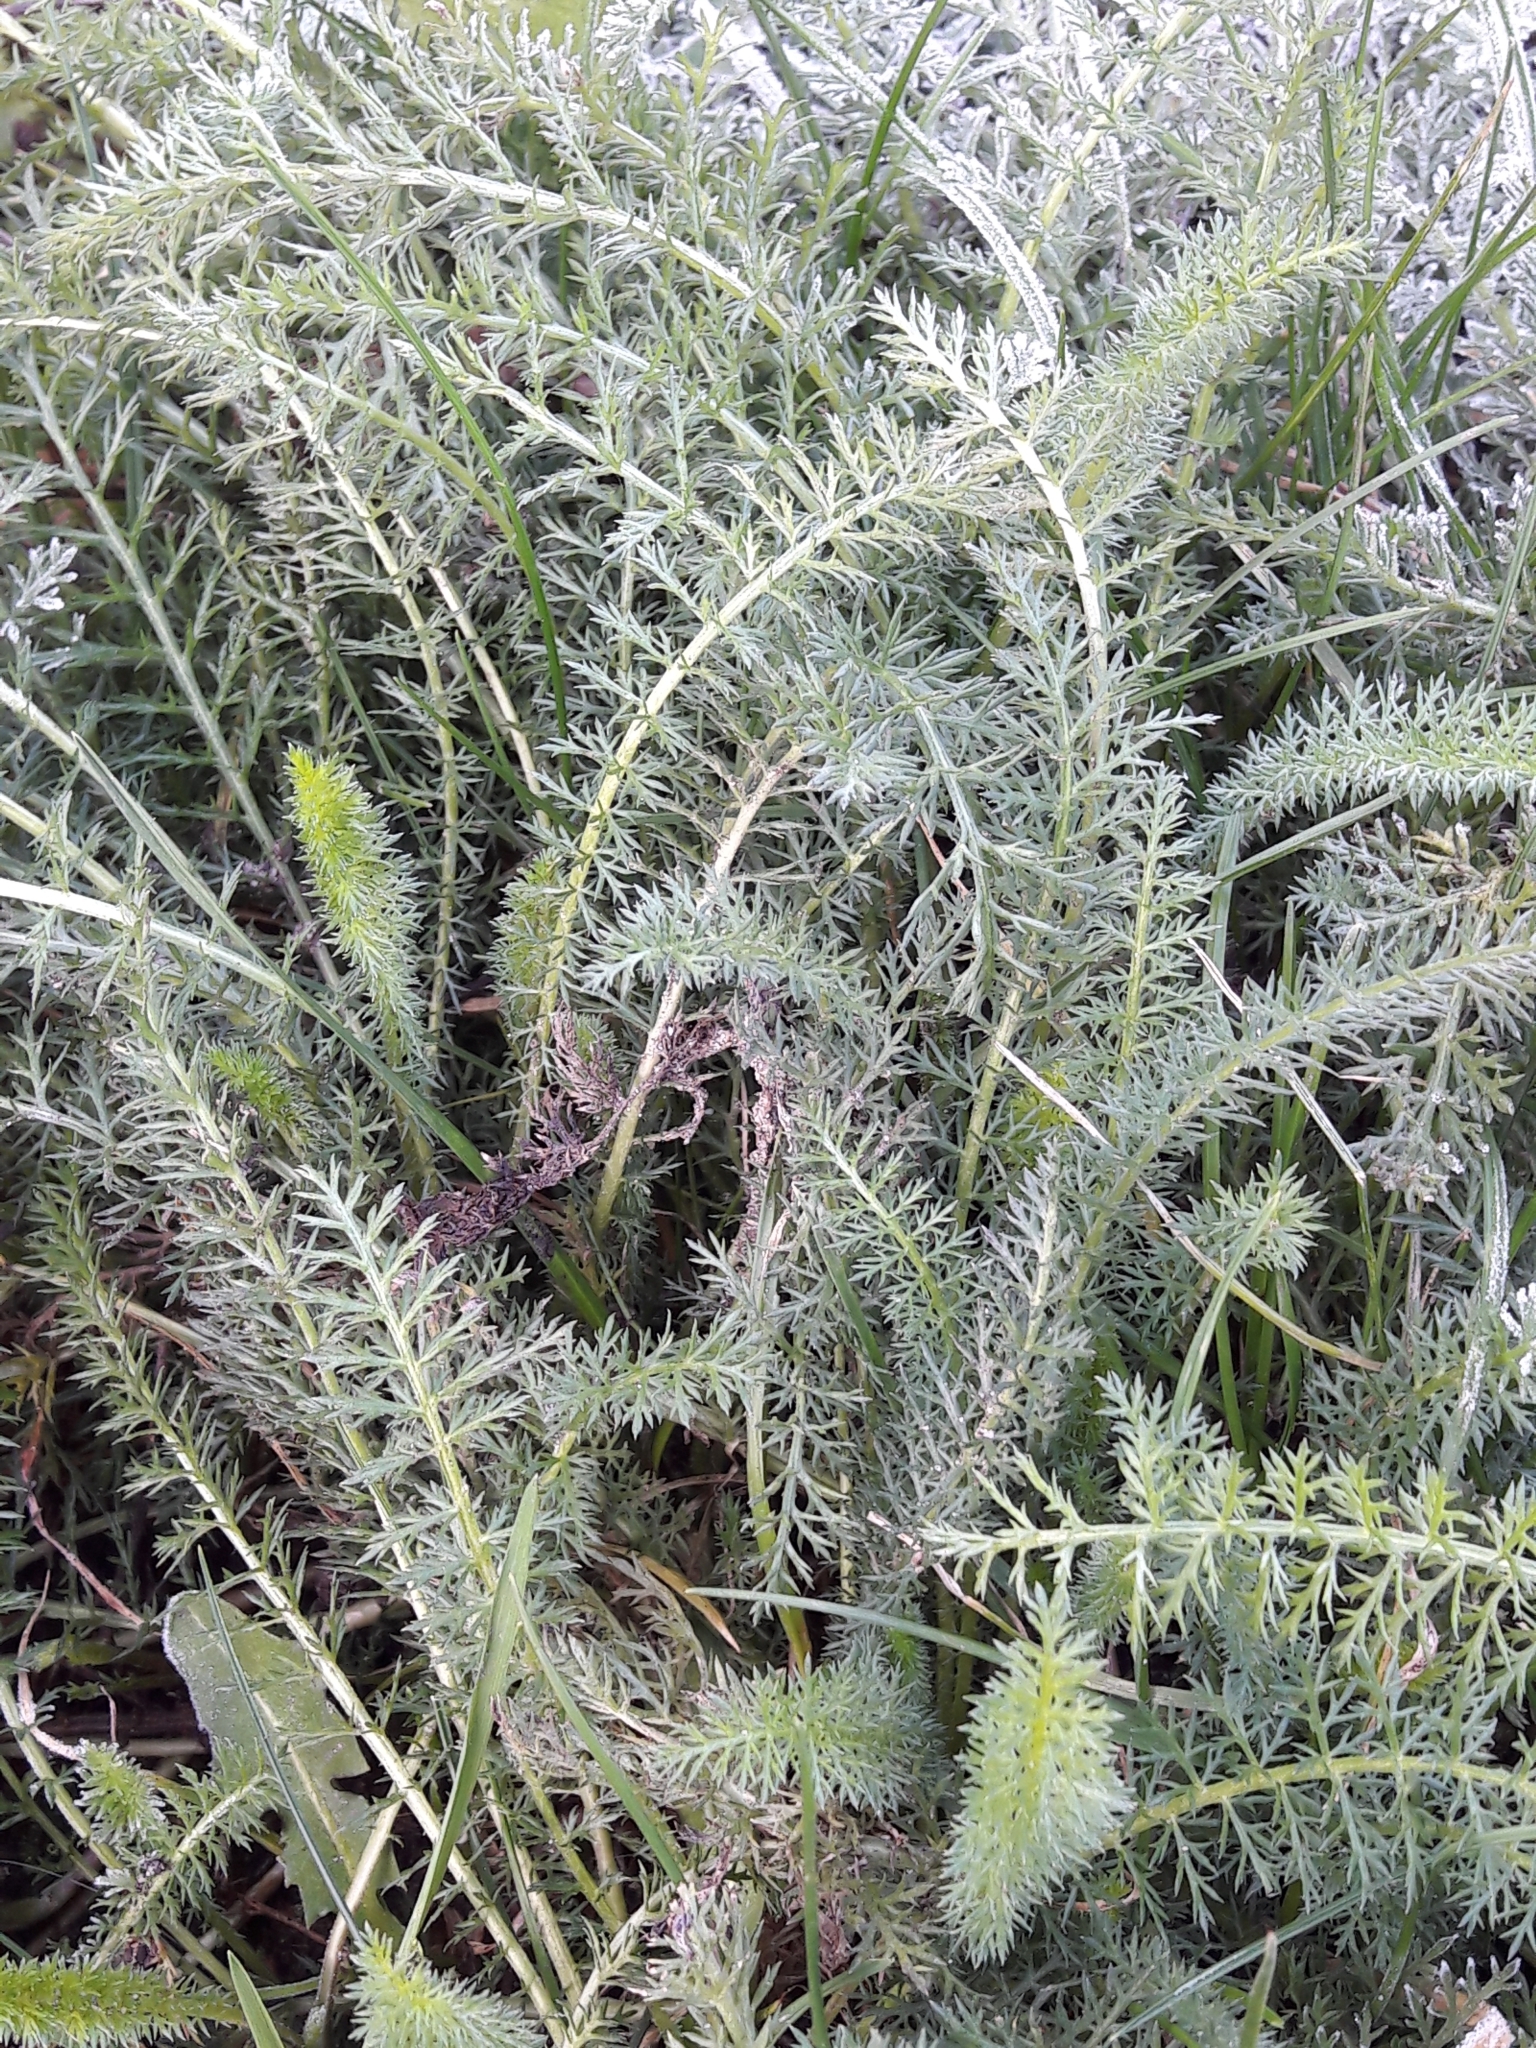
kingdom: Plantae
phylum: Tracheophyta
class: Magnoliopsida
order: Asterales
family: Asteraceae
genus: Achillea
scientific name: Achillea millefolium
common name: Yarrow
